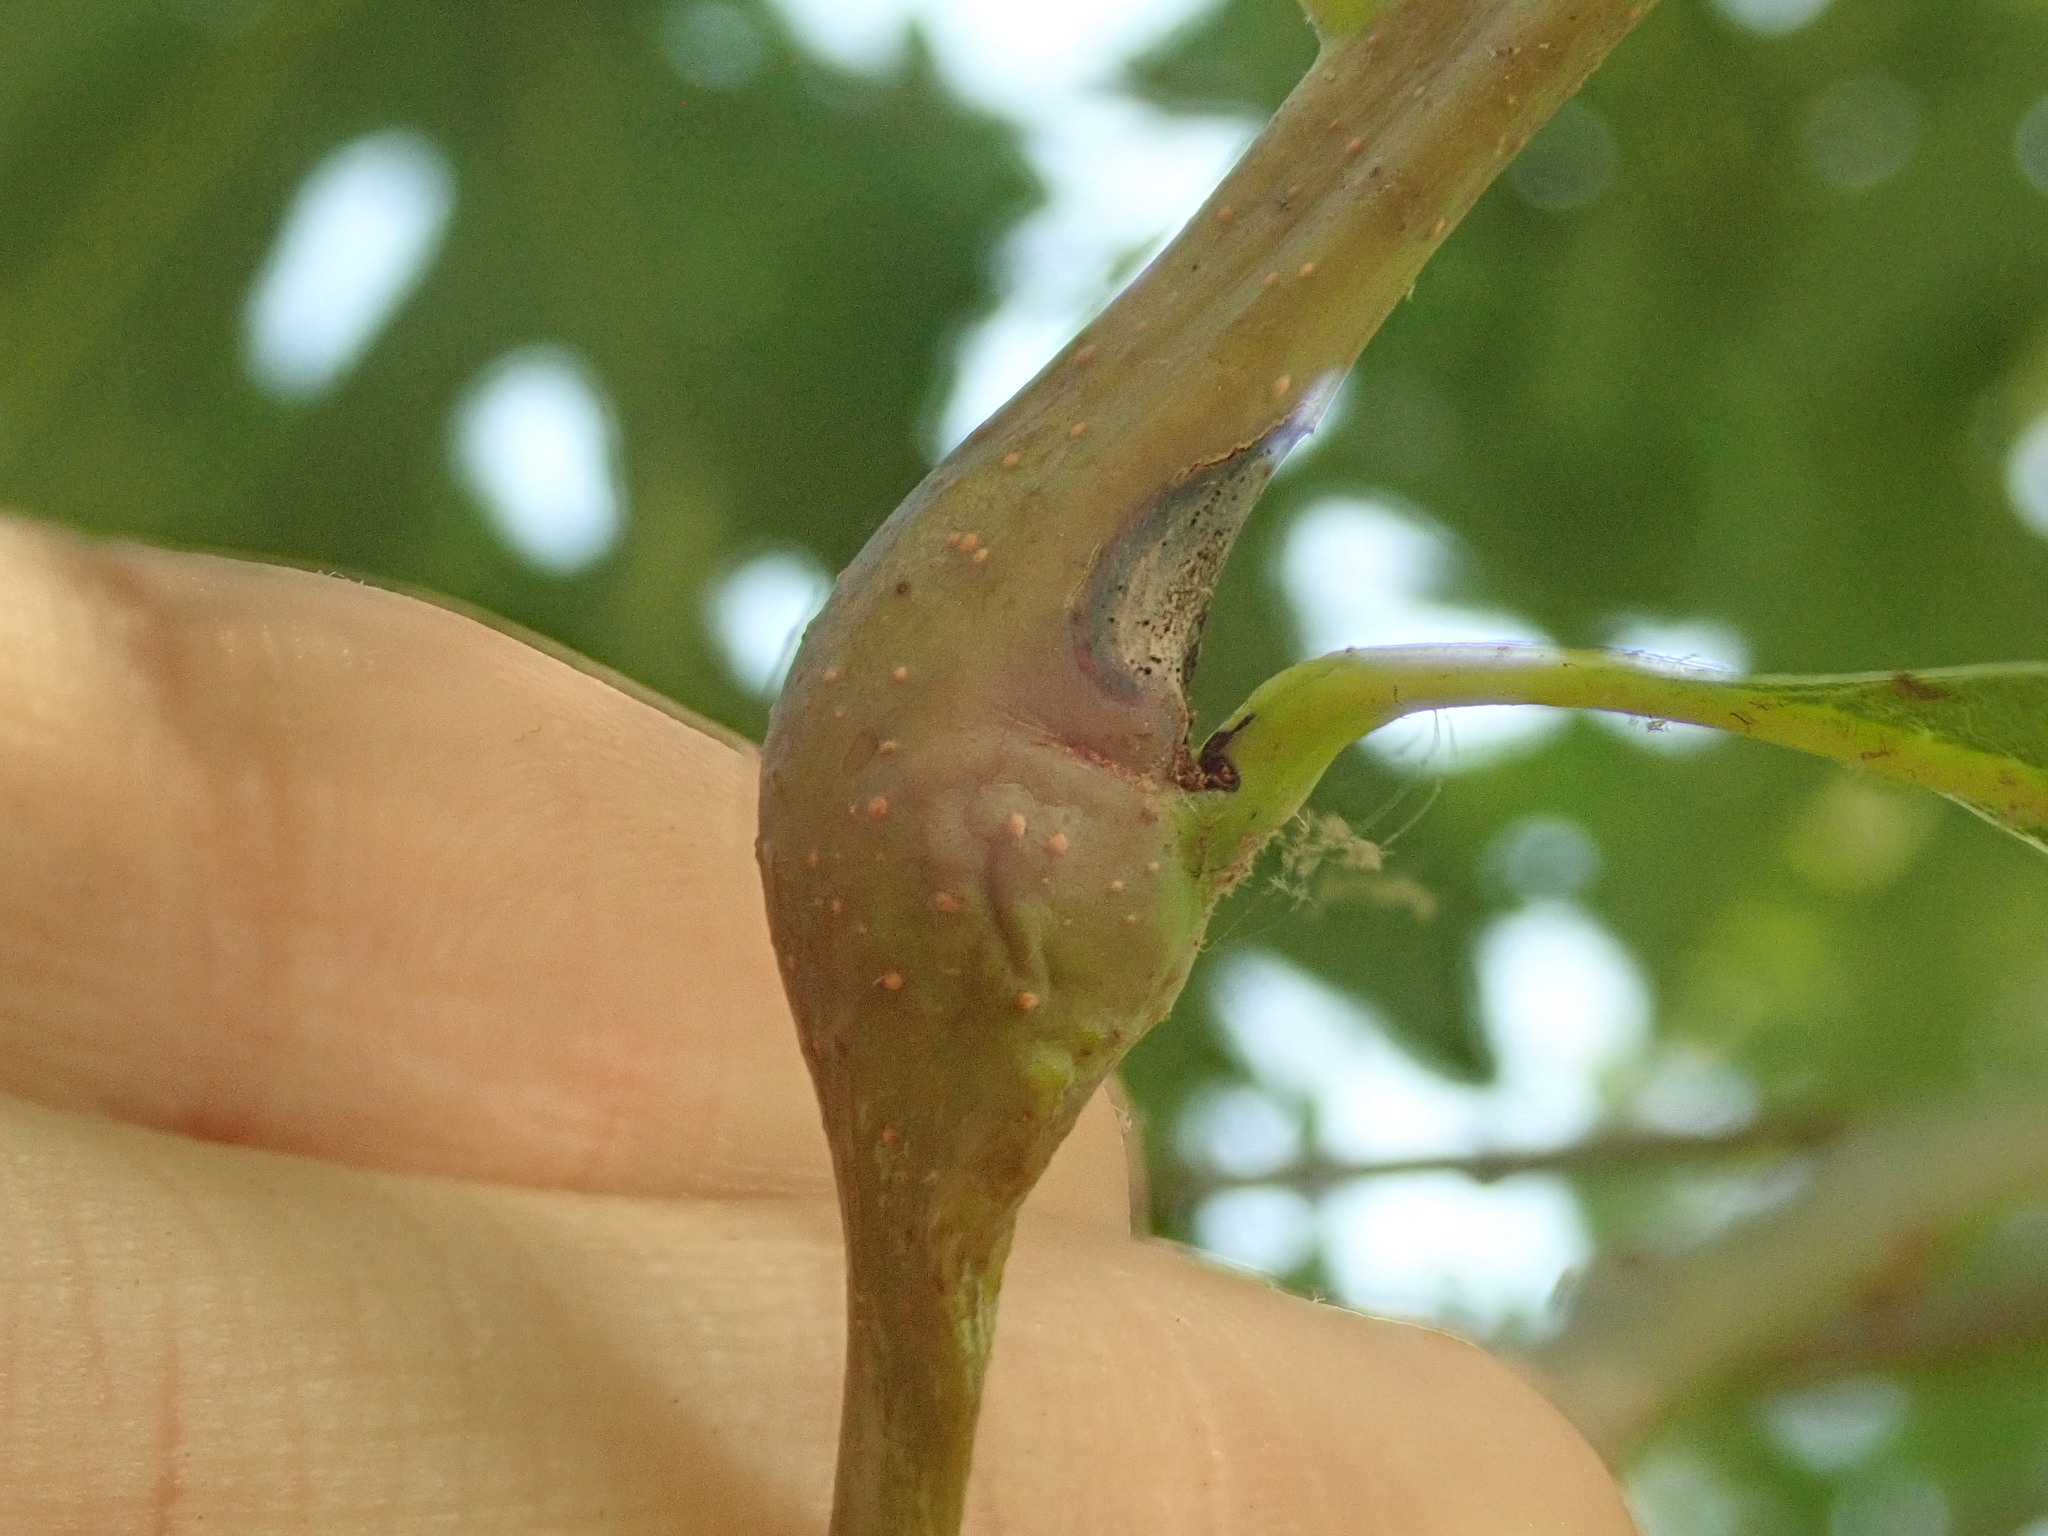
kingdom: Animalia
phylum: Arthropoda
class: Insecta
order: Hymenoptera
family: Cynipidae
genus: Callirhytis
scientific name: Callirhytis clavula
